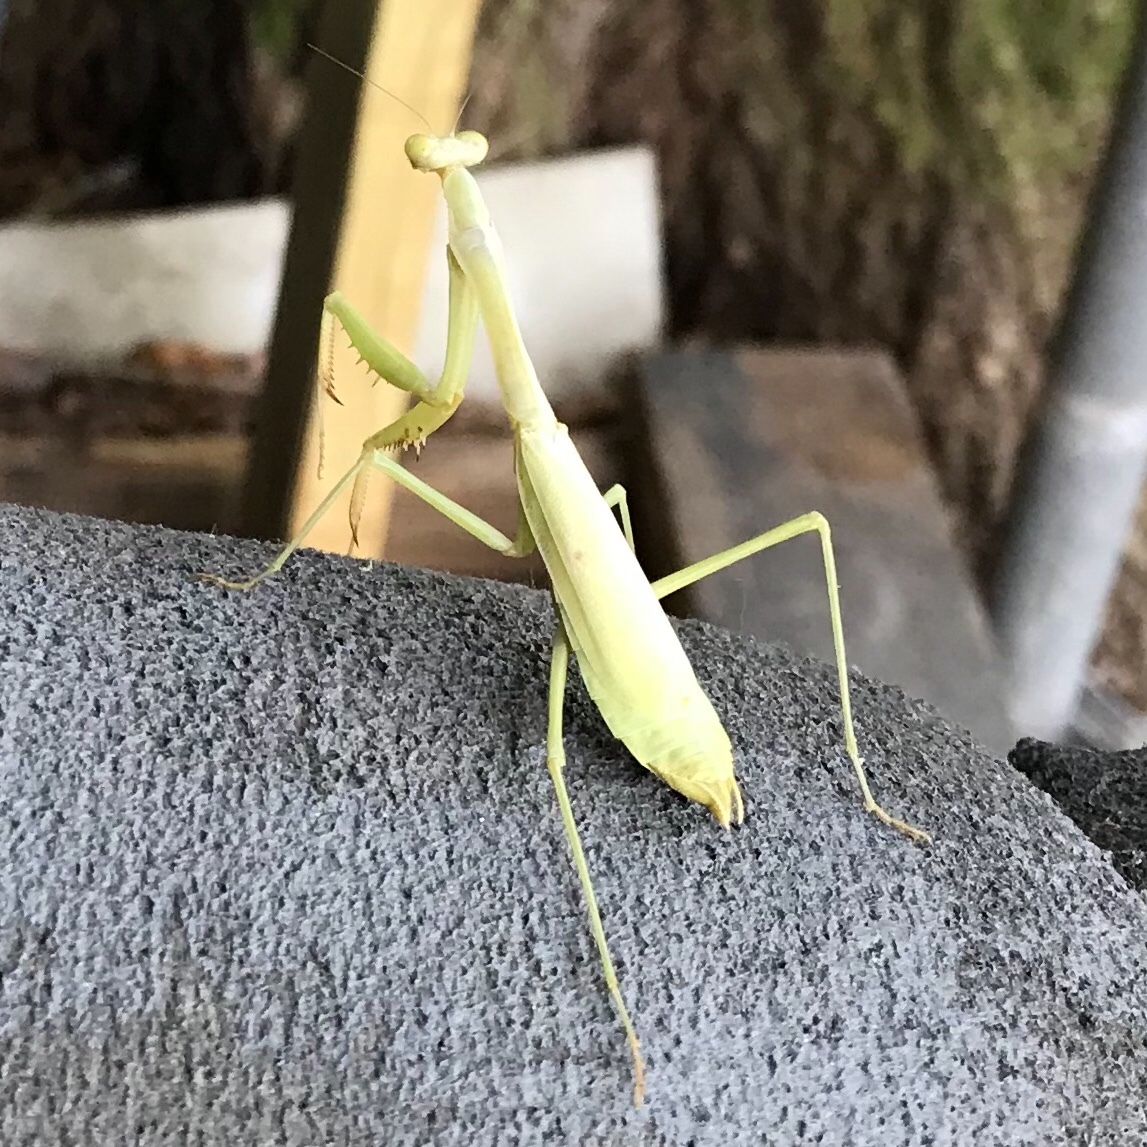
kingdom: Animalia
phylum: Arthropoda
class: Insecta
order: Mantodea
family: Mantidae
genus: Stagmomantis
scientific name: Stagmomantis carolina
